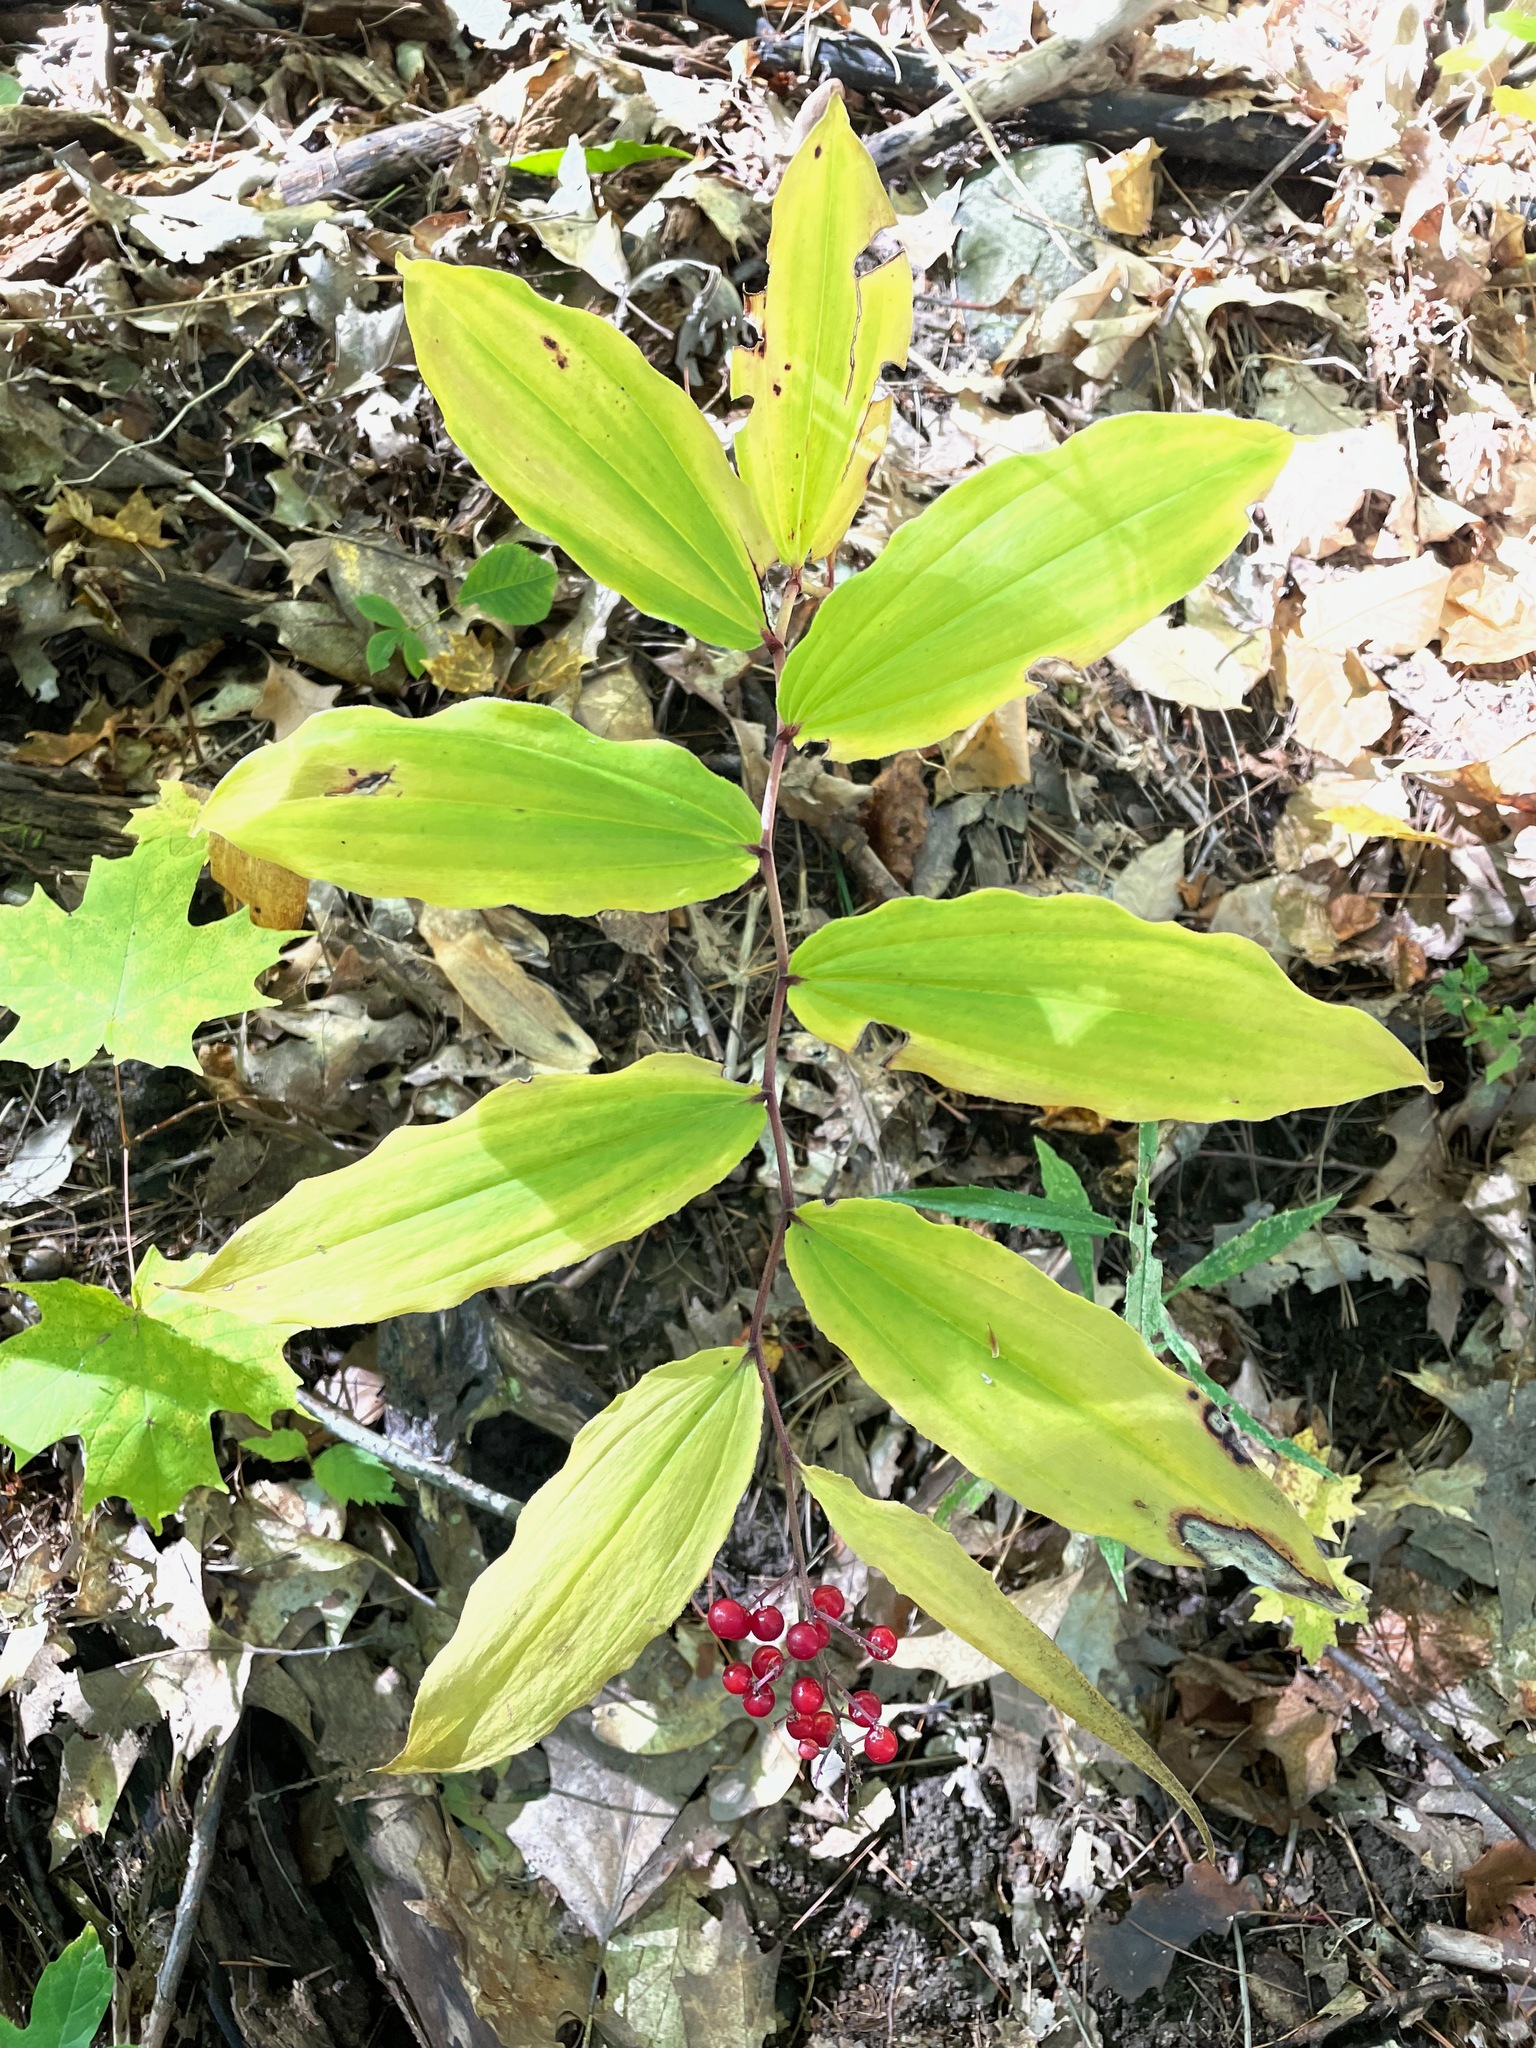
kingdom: Plantae
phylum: Tracheophyta
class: Liliopsida
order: Asparagales
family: Asparagaceae
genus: Maianthemum
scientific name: Maianthemum racemosum
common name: False spikenard
